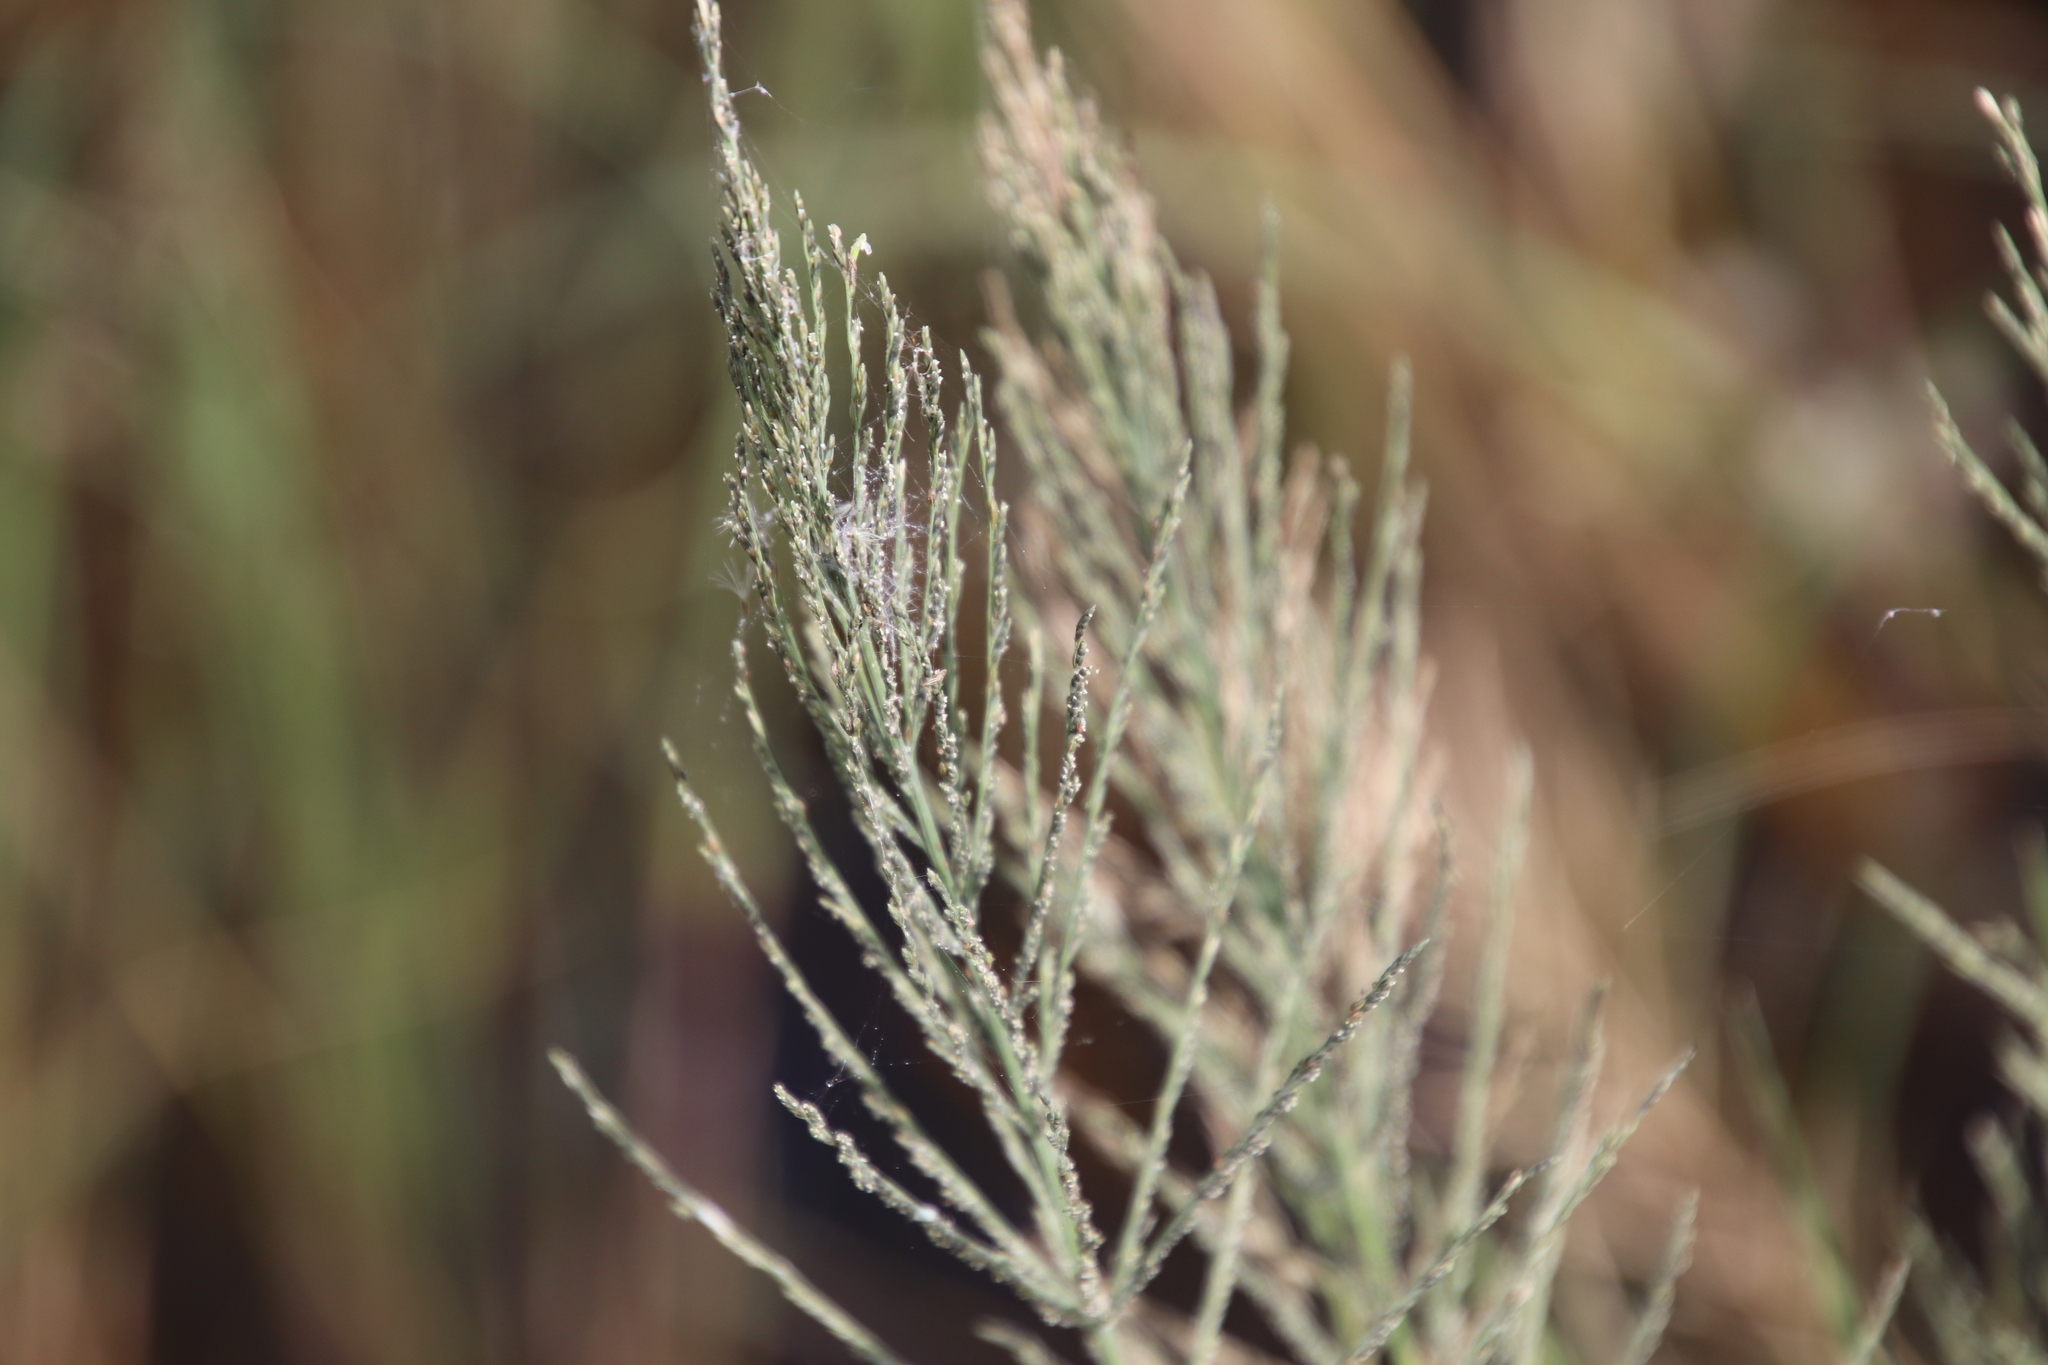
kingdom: Plantae
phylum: Tracheophyta
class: Liliopsida
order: Poales
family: Poaceae
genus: Diplachne
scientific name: Diplachne fusca
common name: Brown beetle grass
